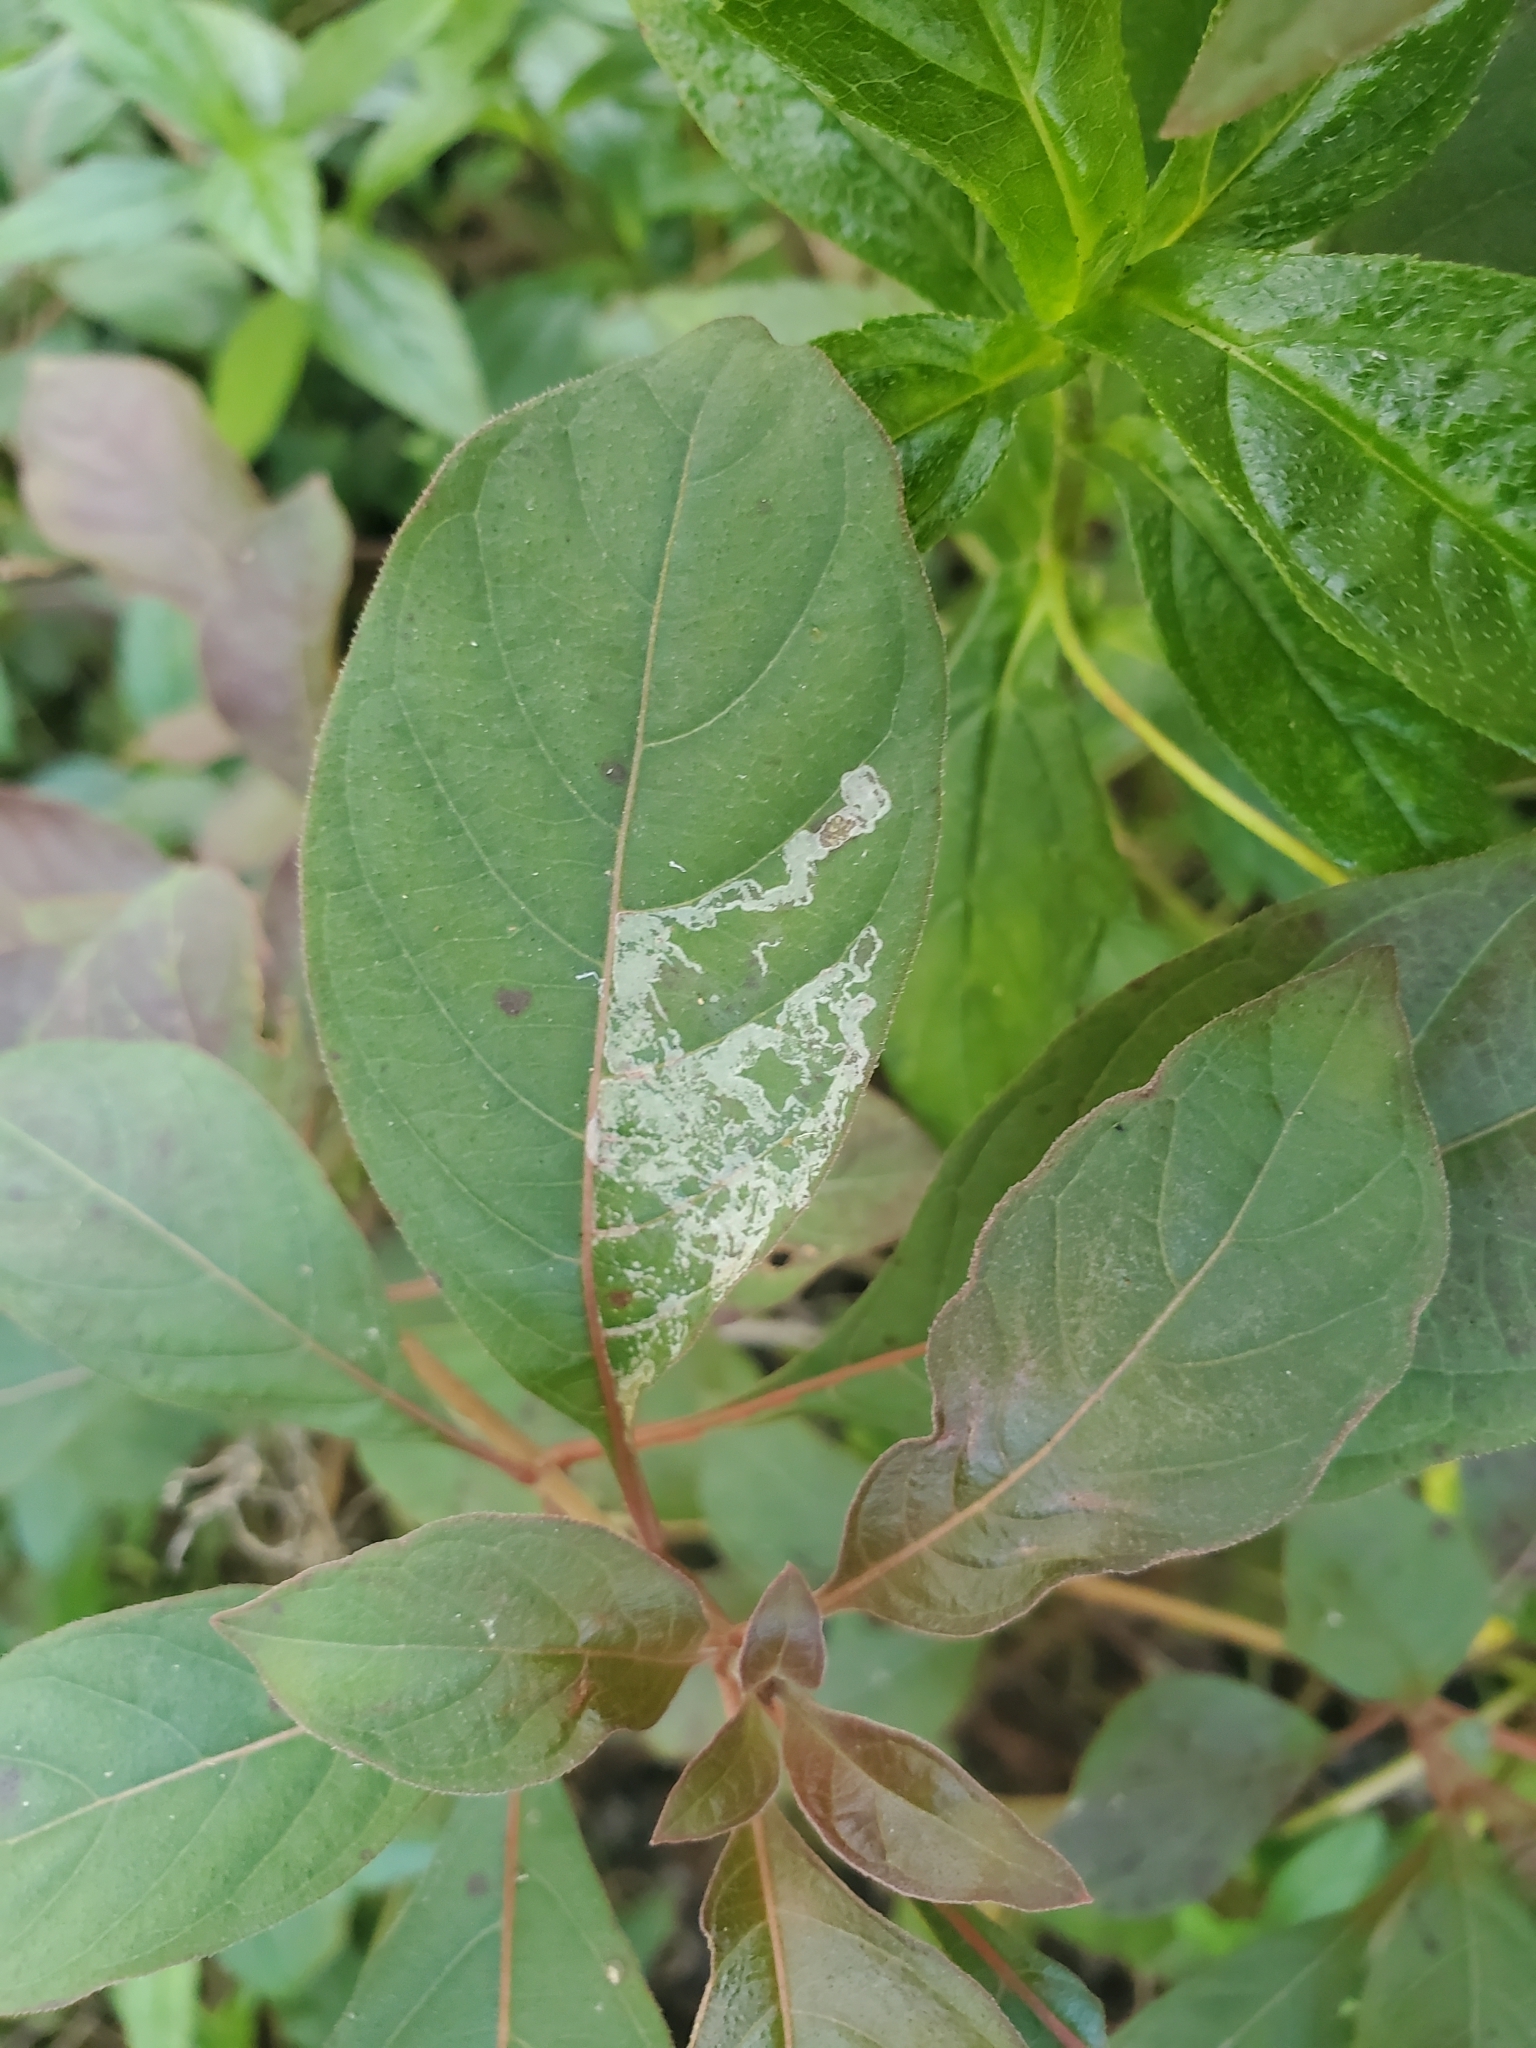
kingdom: Plantae
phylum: Tracheophyta
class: Magnoliopsida
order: Gentianales
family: Rubiaceae
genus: Hamelia
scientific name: Hamelia patens
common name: Redhead
